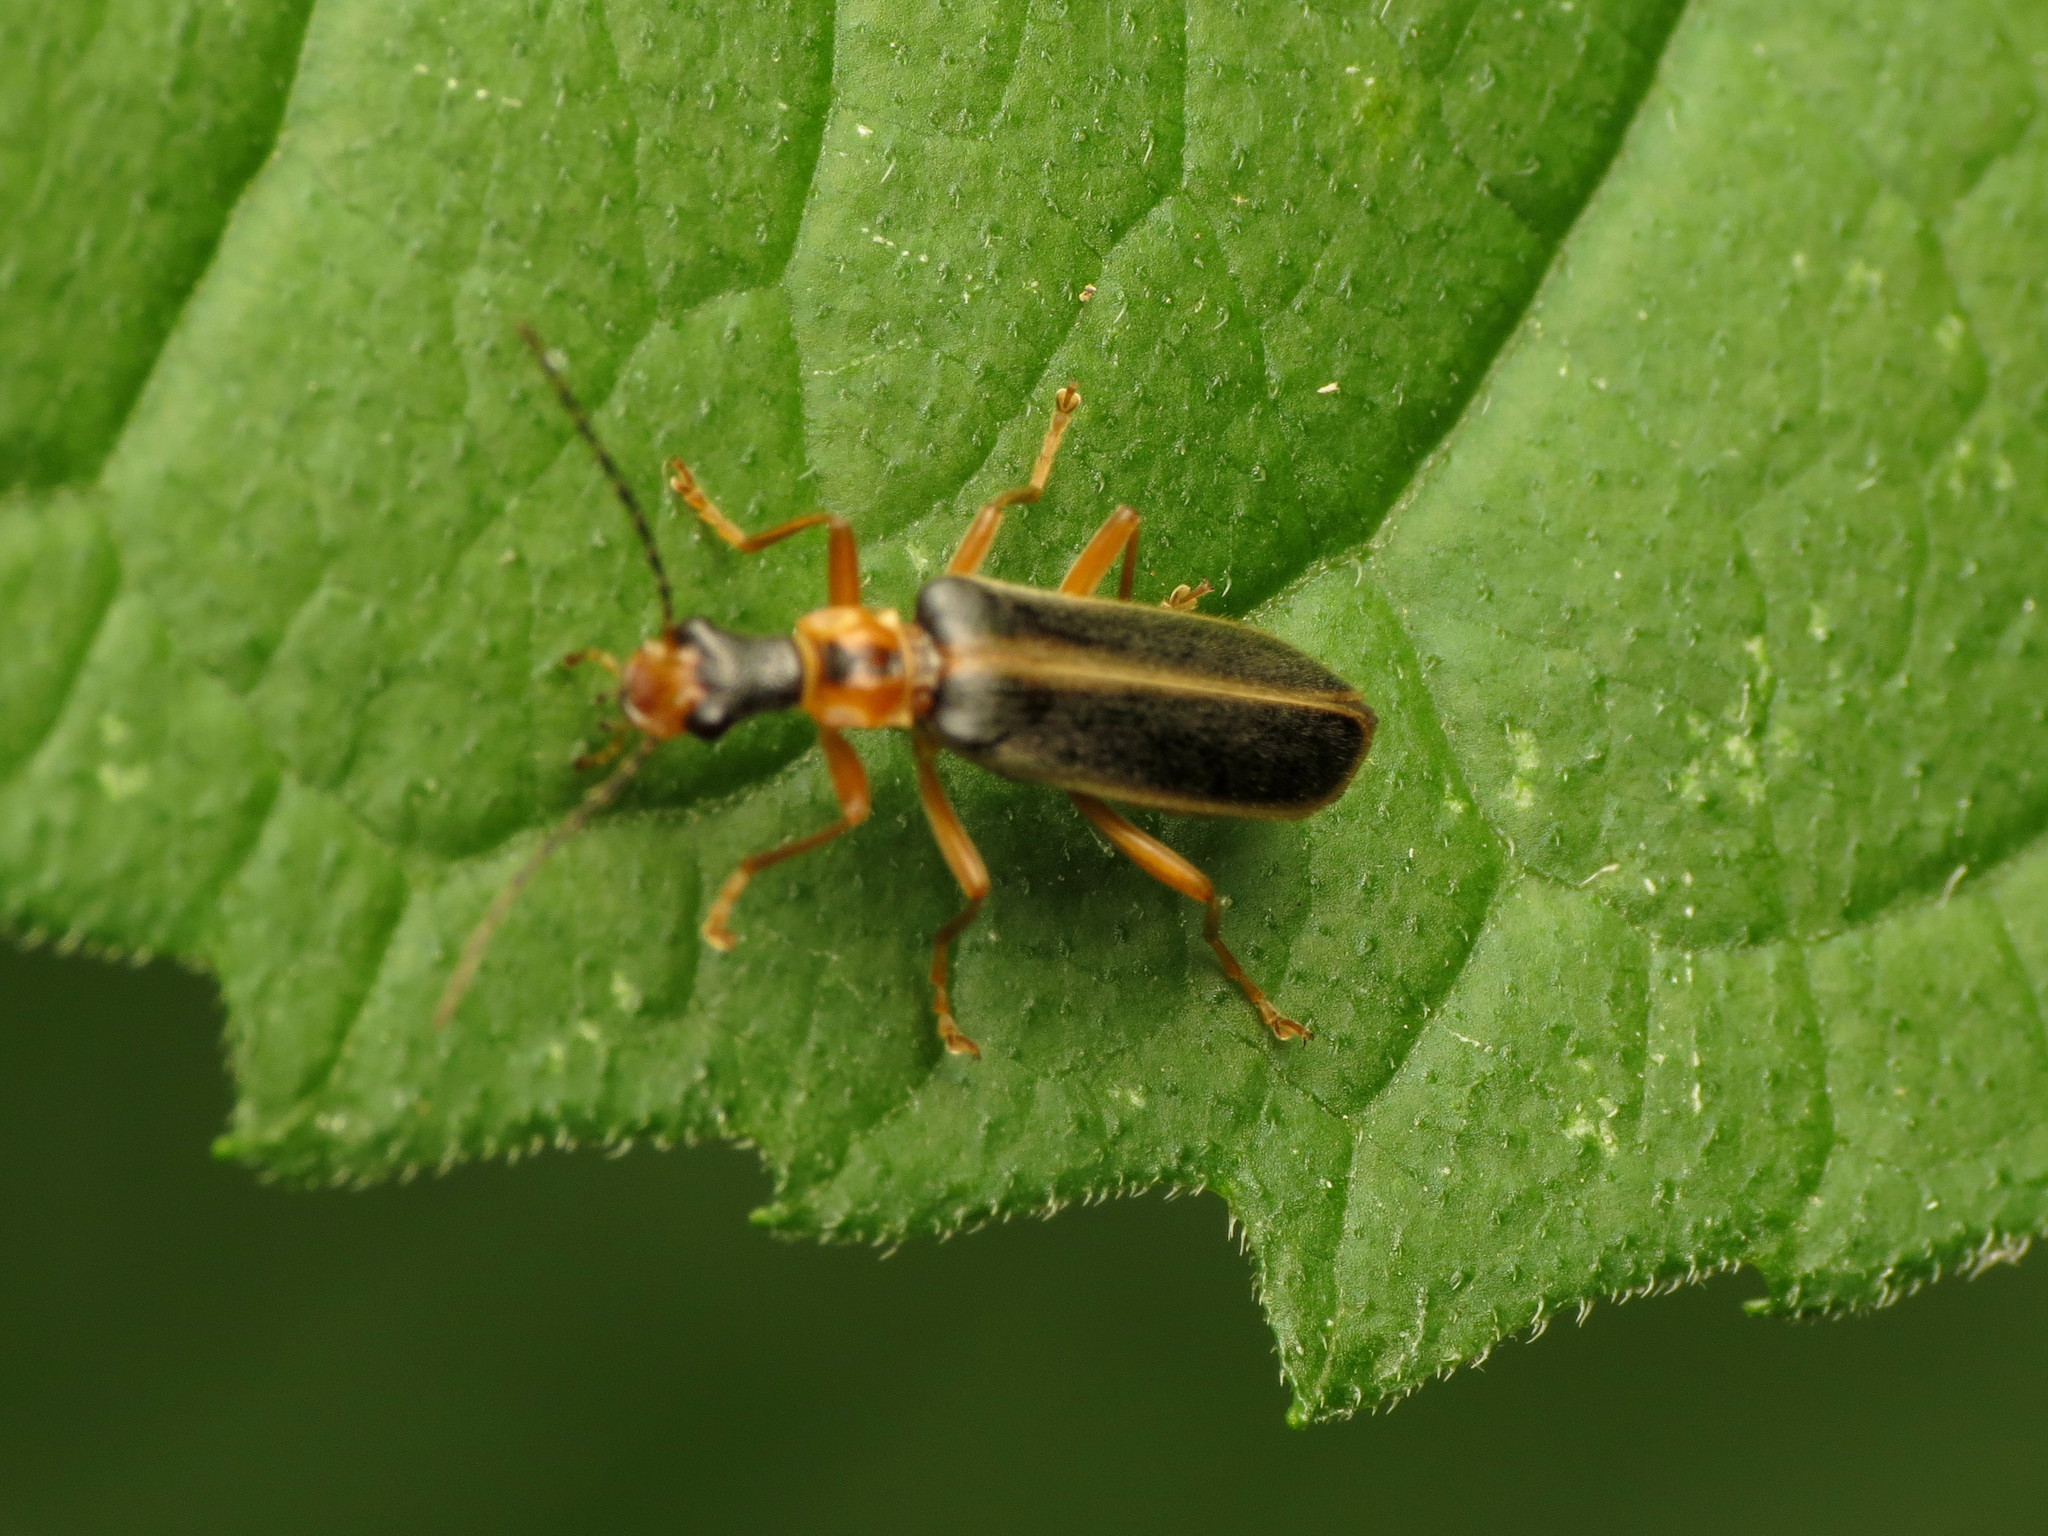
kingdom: Animalia
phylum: Arthropoda
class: Insecta
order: Coleoptera
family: Cantharidae
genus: Podabrus
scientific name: Podabrus brunnicollis
